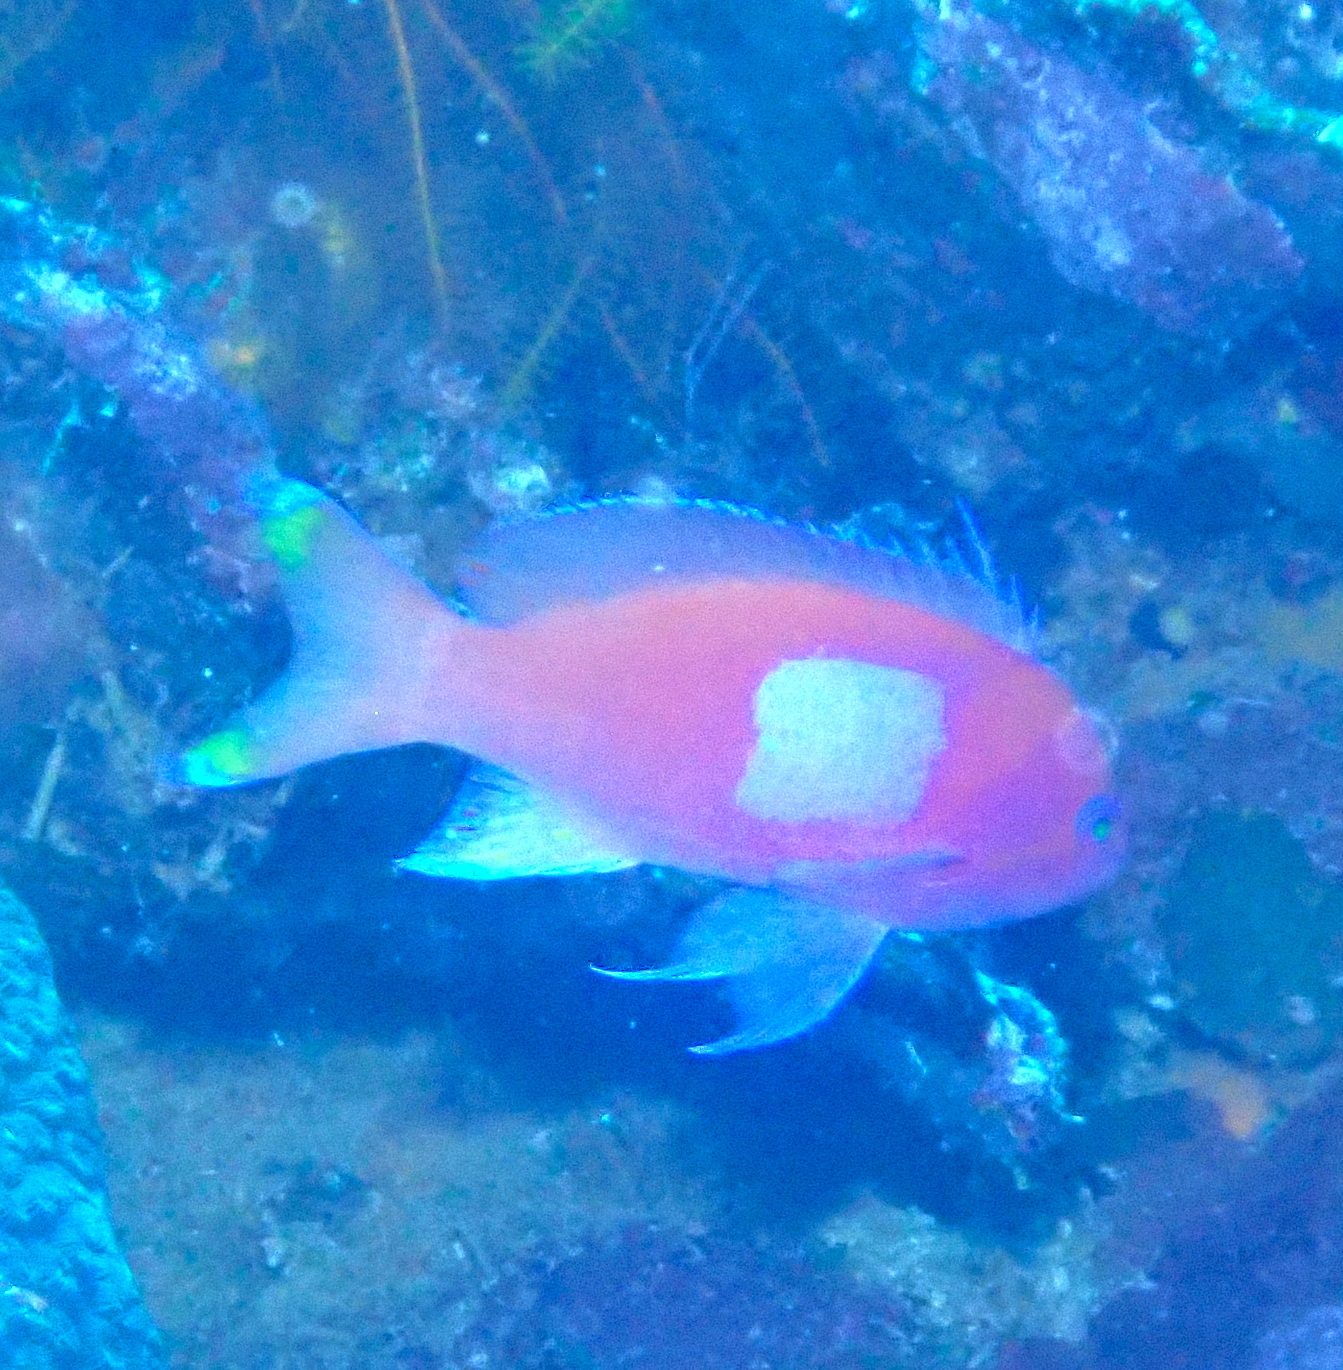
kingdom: Animalia
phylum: Chordata
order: Perciformes
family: Serranidae
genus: Pseudanthias
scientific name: Pseudanthias pleurotaenia
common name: Mirror basslet
